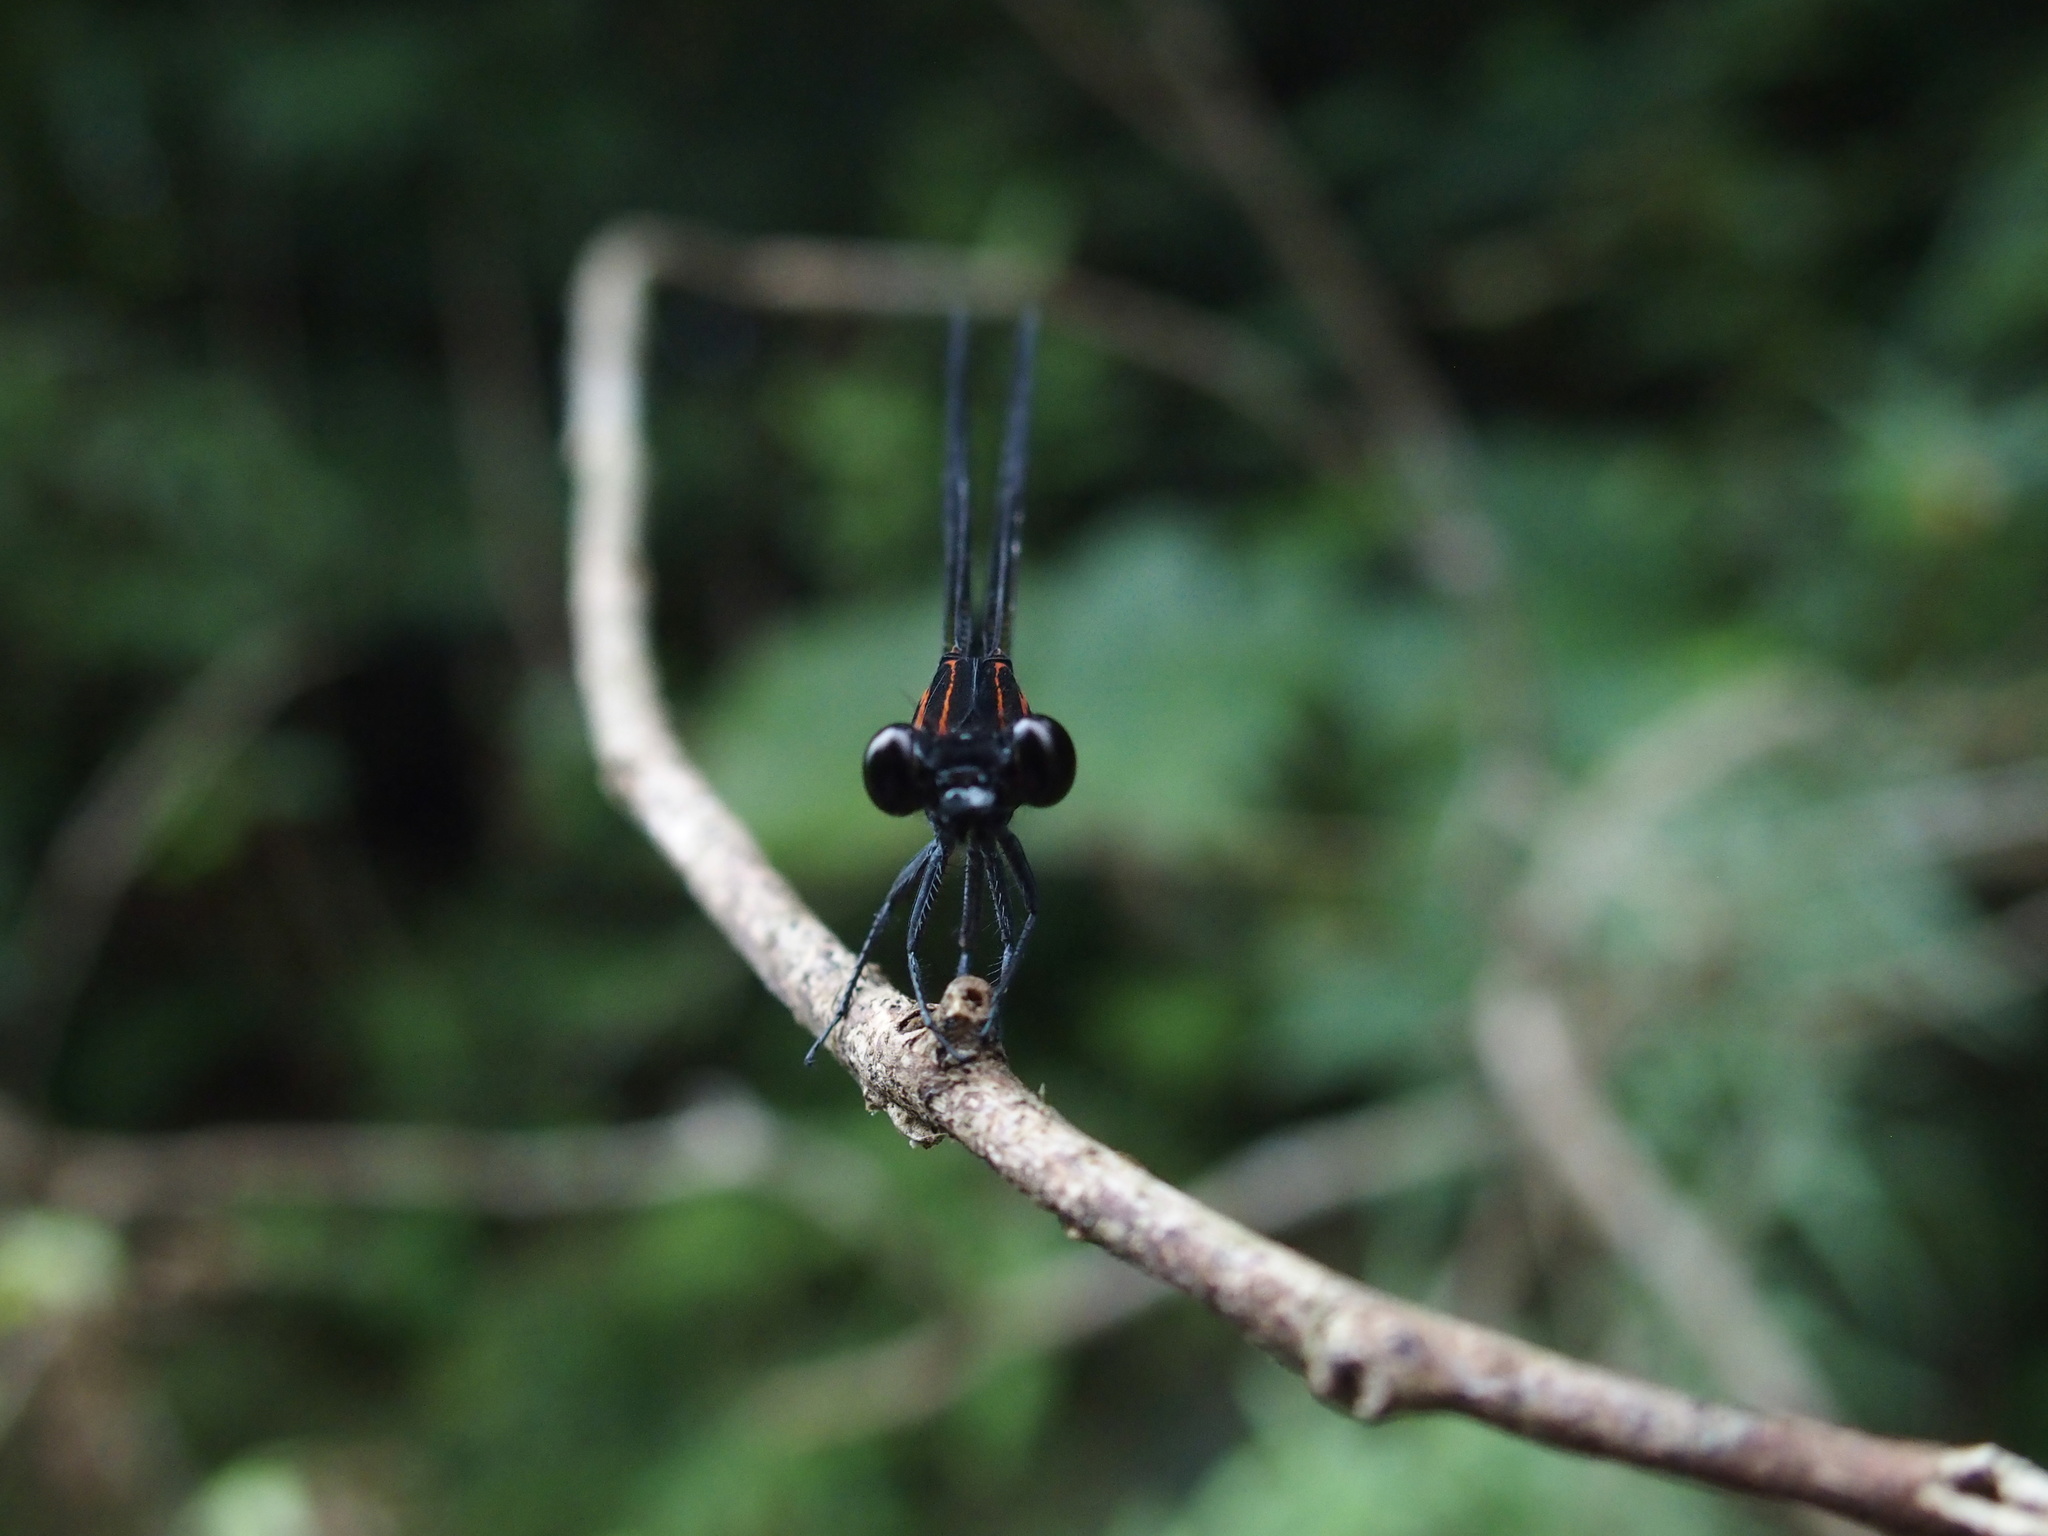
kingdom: Animalia
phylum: Arthropoda
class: Insecta
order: Odonata
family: Euphaeidae
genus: Euphaea
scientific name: Euphaea formosa
